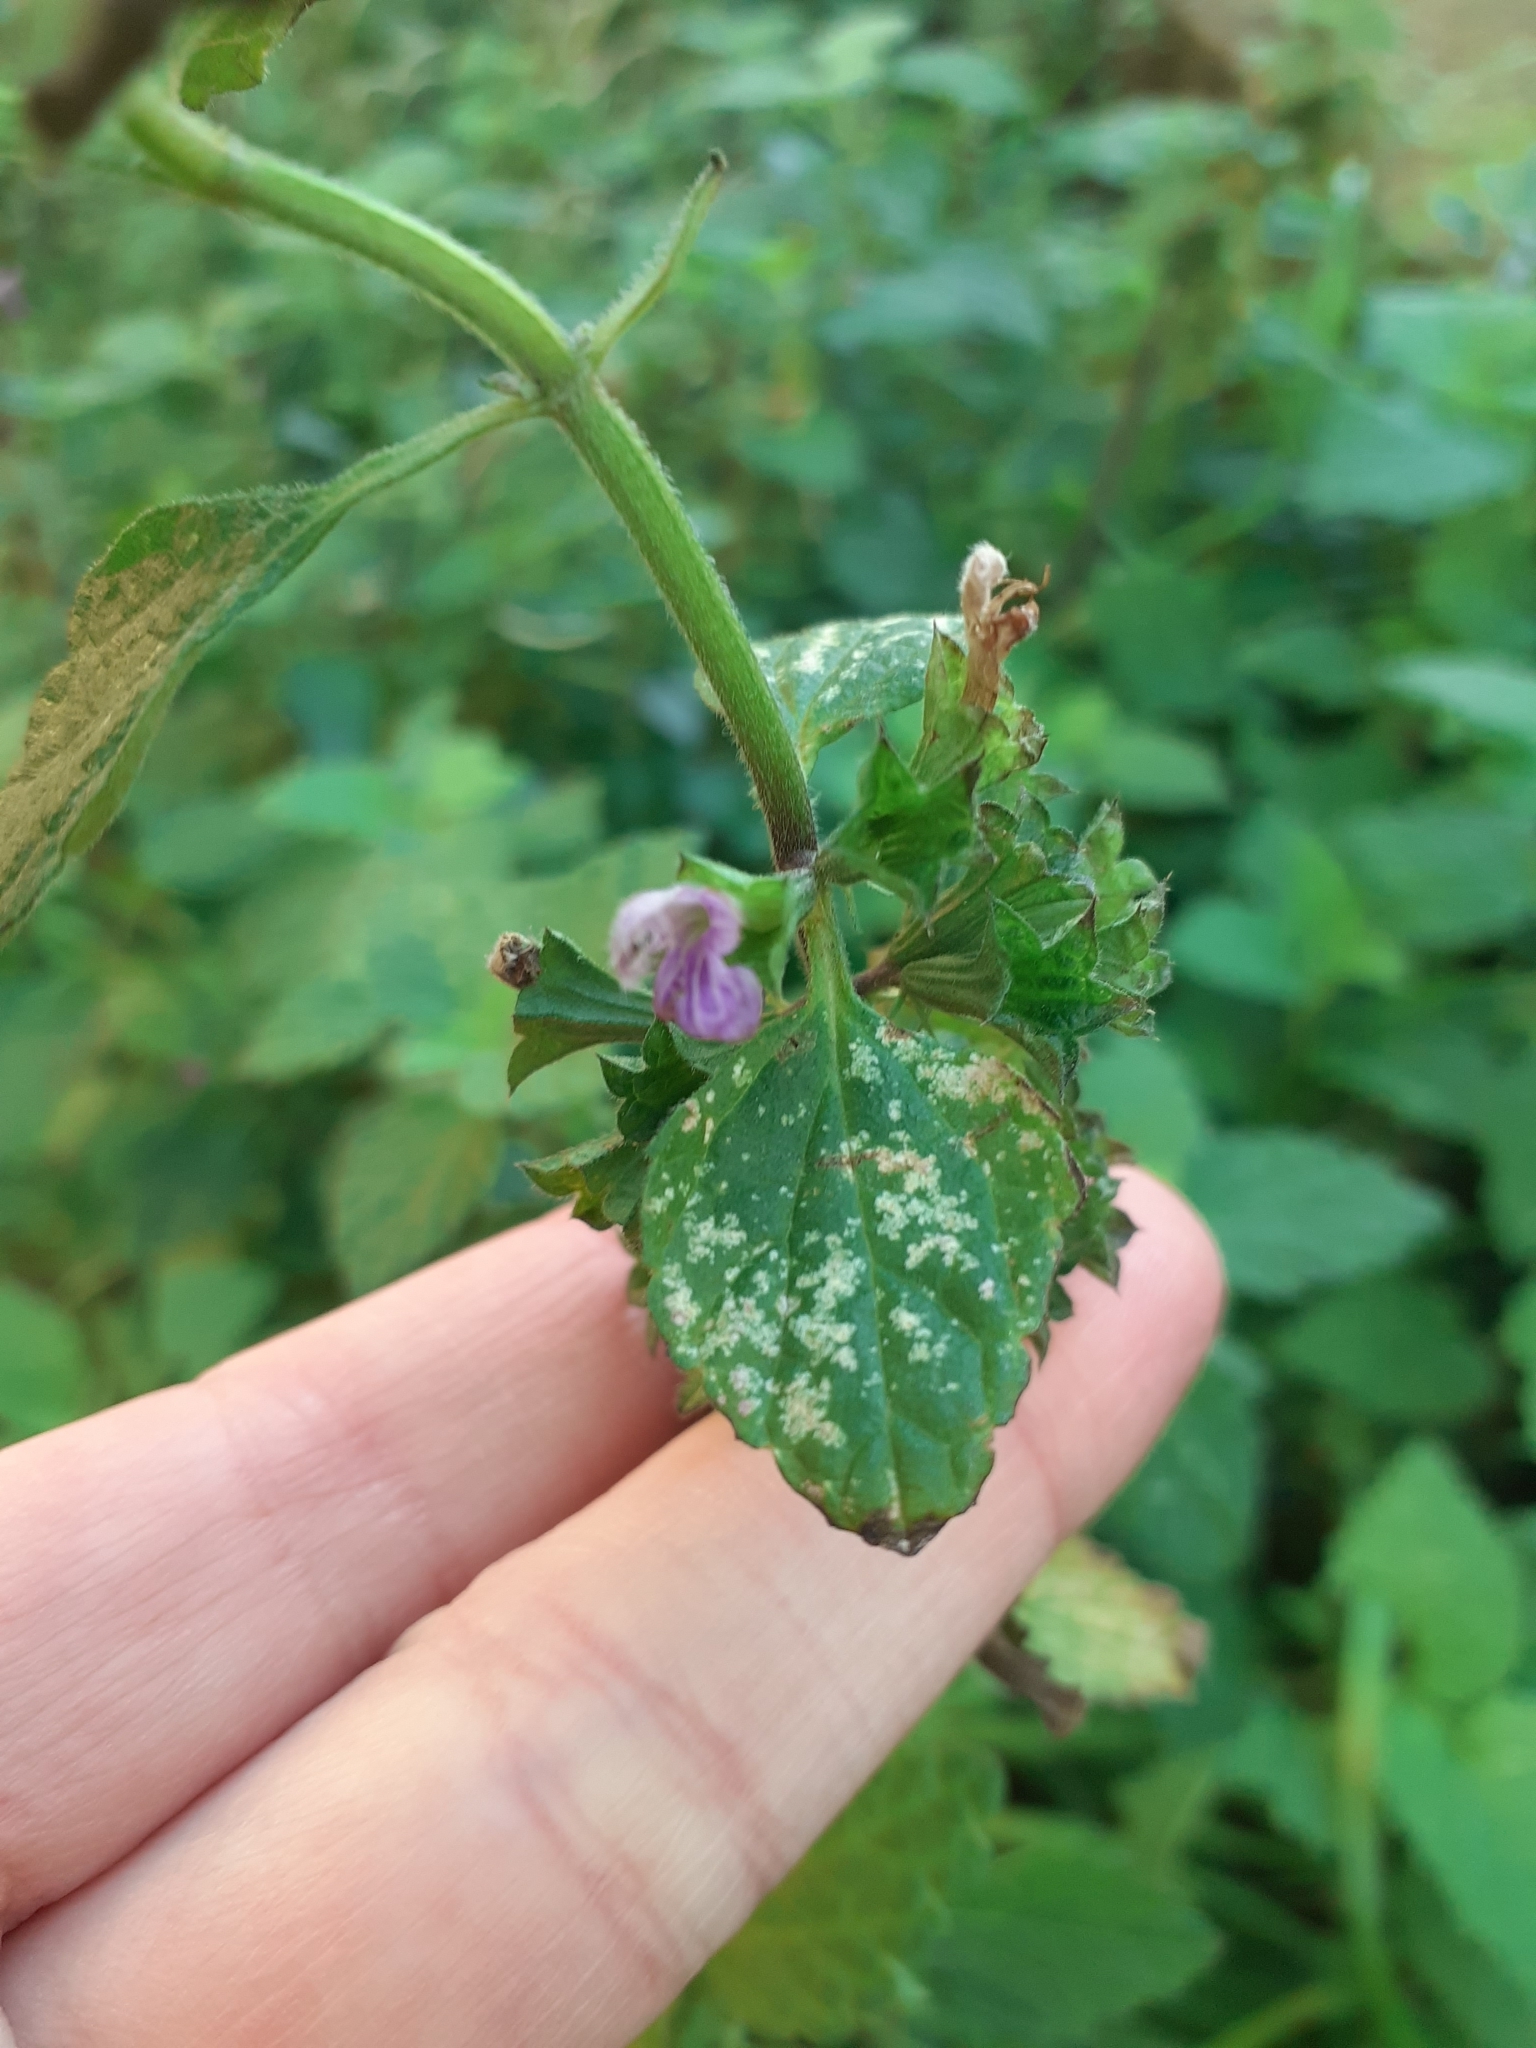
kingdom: Plantae
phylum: Tracheophyta
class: Magnoliopsida
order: Lamiales
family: Lamiaceae
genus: Ballota
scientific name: Ballota nigra
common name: Black horehound
